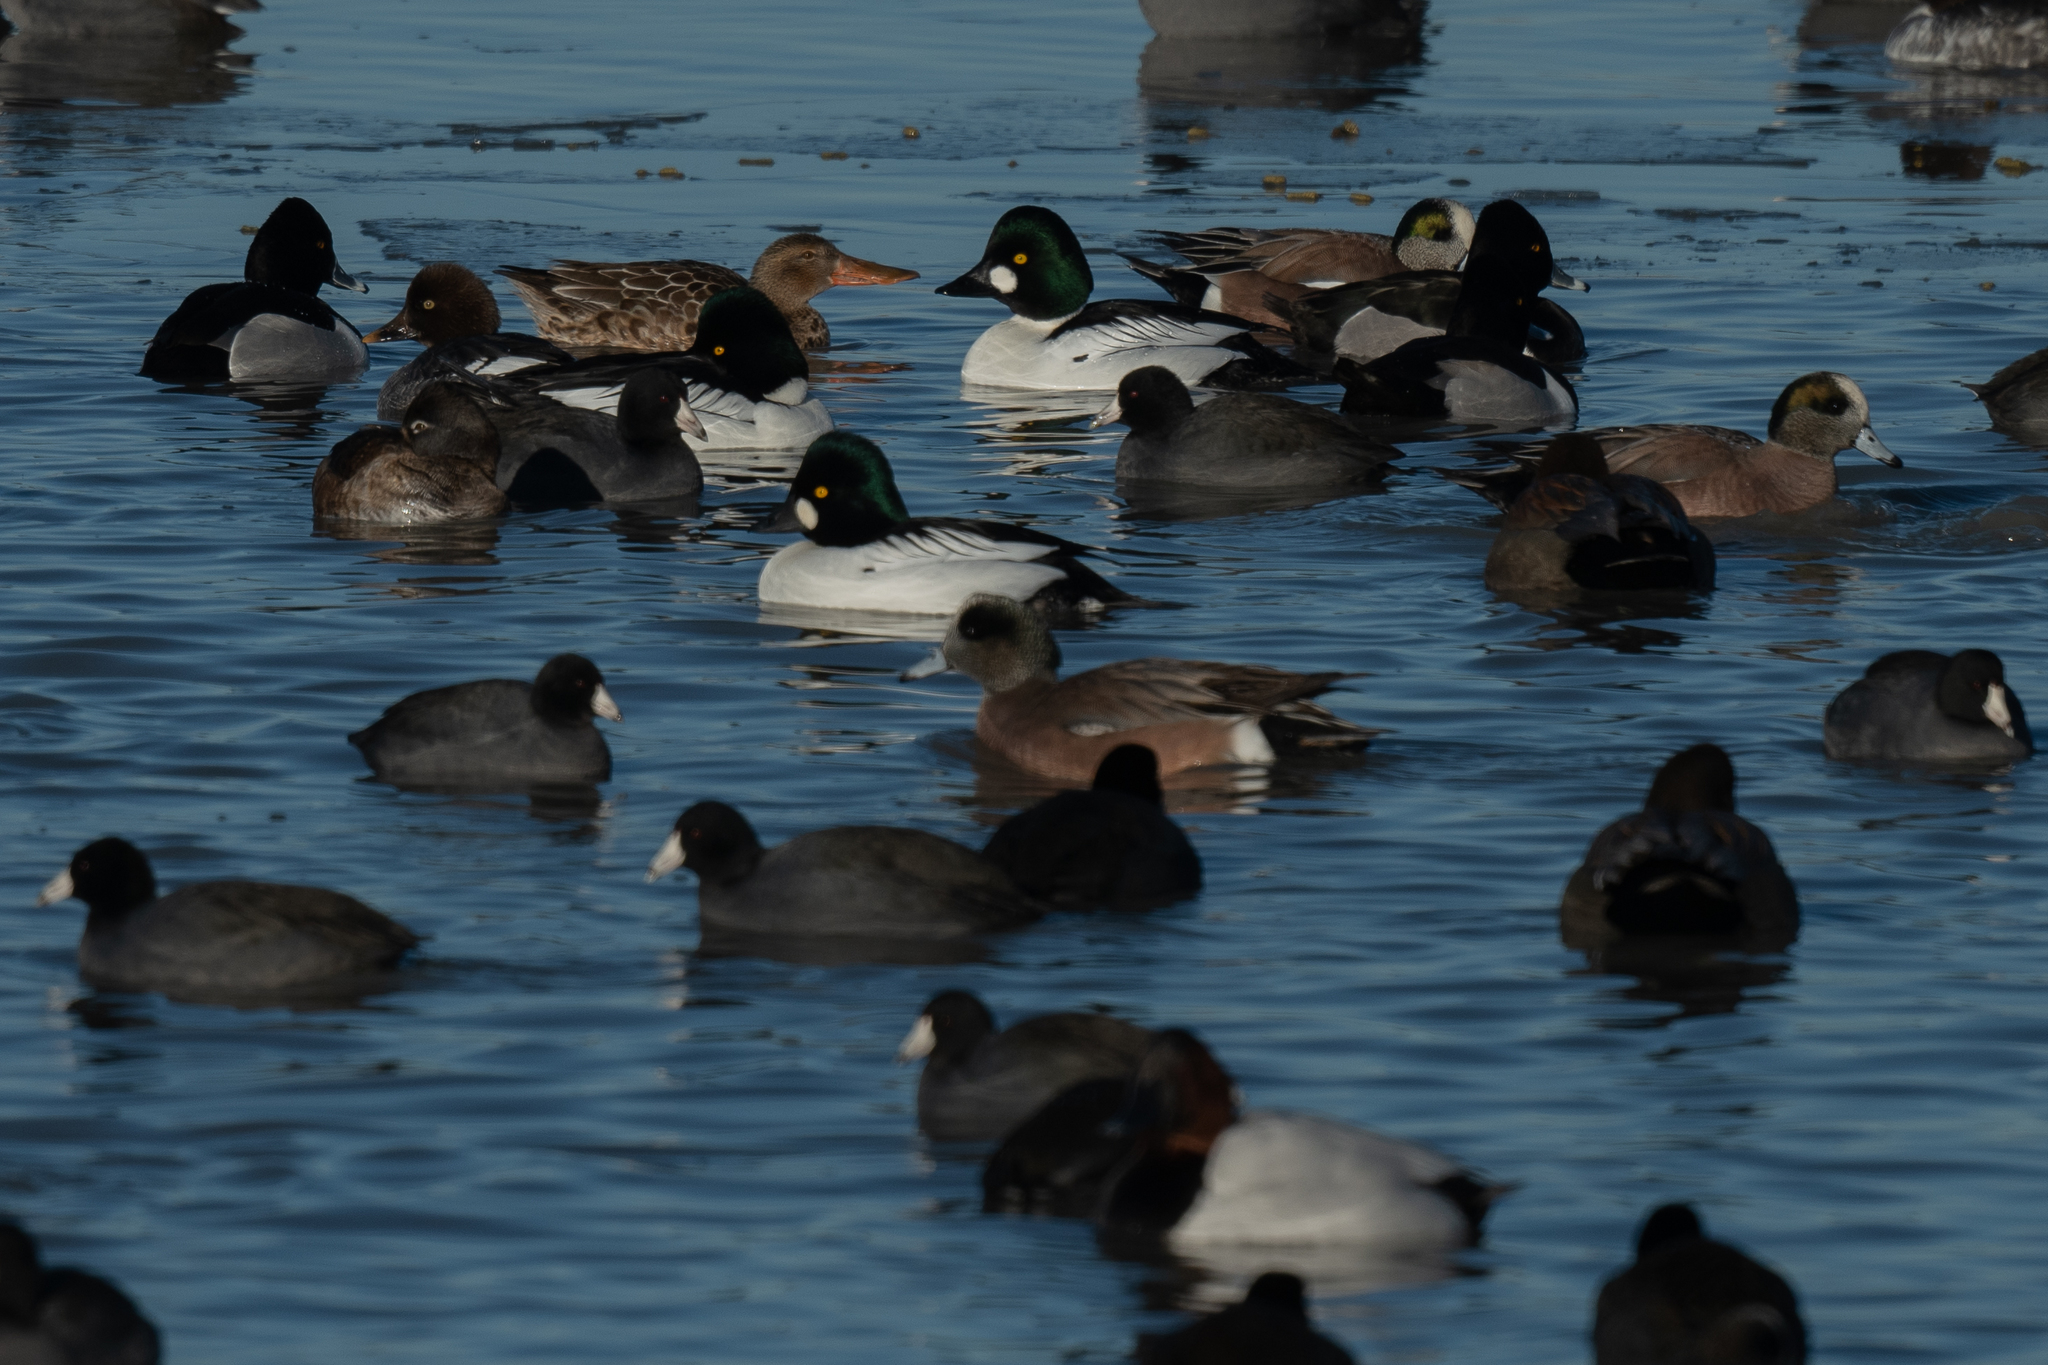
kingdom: Animalia
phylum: Chordata
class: Aves
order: Anseriformes
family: Anatidae
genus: Bucephala
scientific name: Bucephala clangula
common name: Common goldeneye
